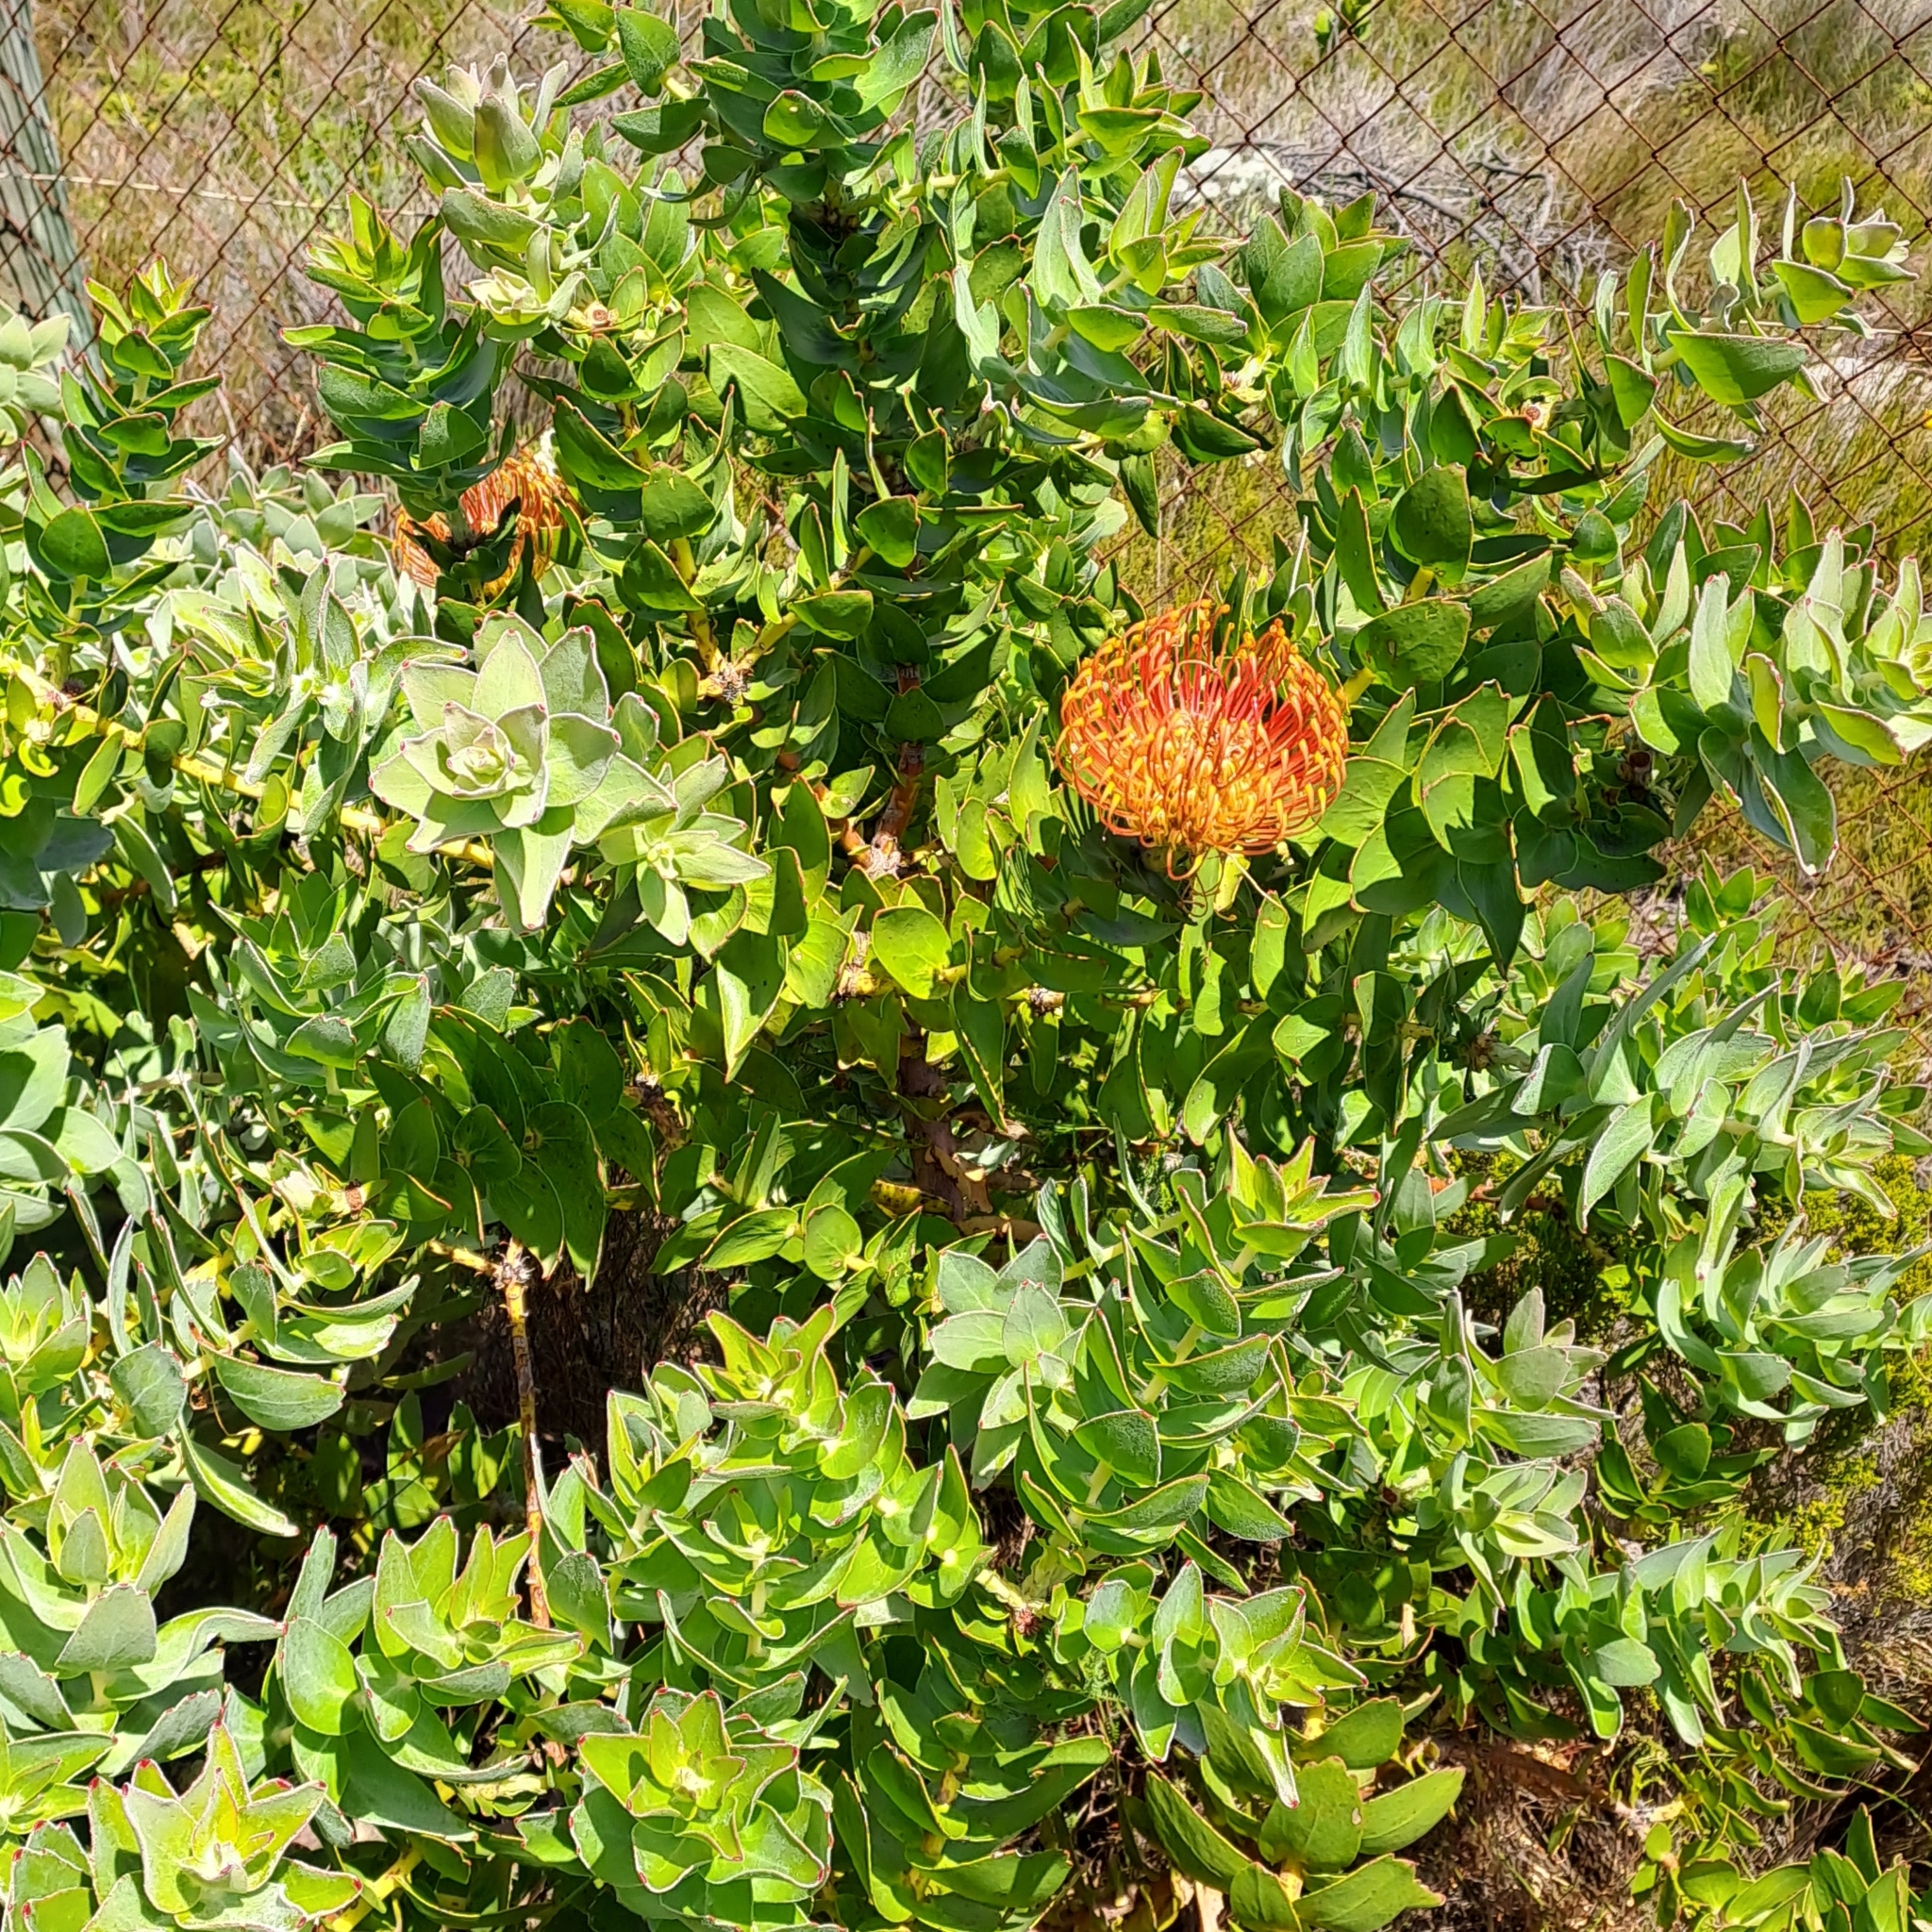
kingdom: Plantae
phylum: Tracheophyta
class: Magnoliopsida
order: Proteales
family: Proteaceae
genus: Leucospermum
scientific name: Leucospermum cordifolium
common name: Red pincushion-protea
